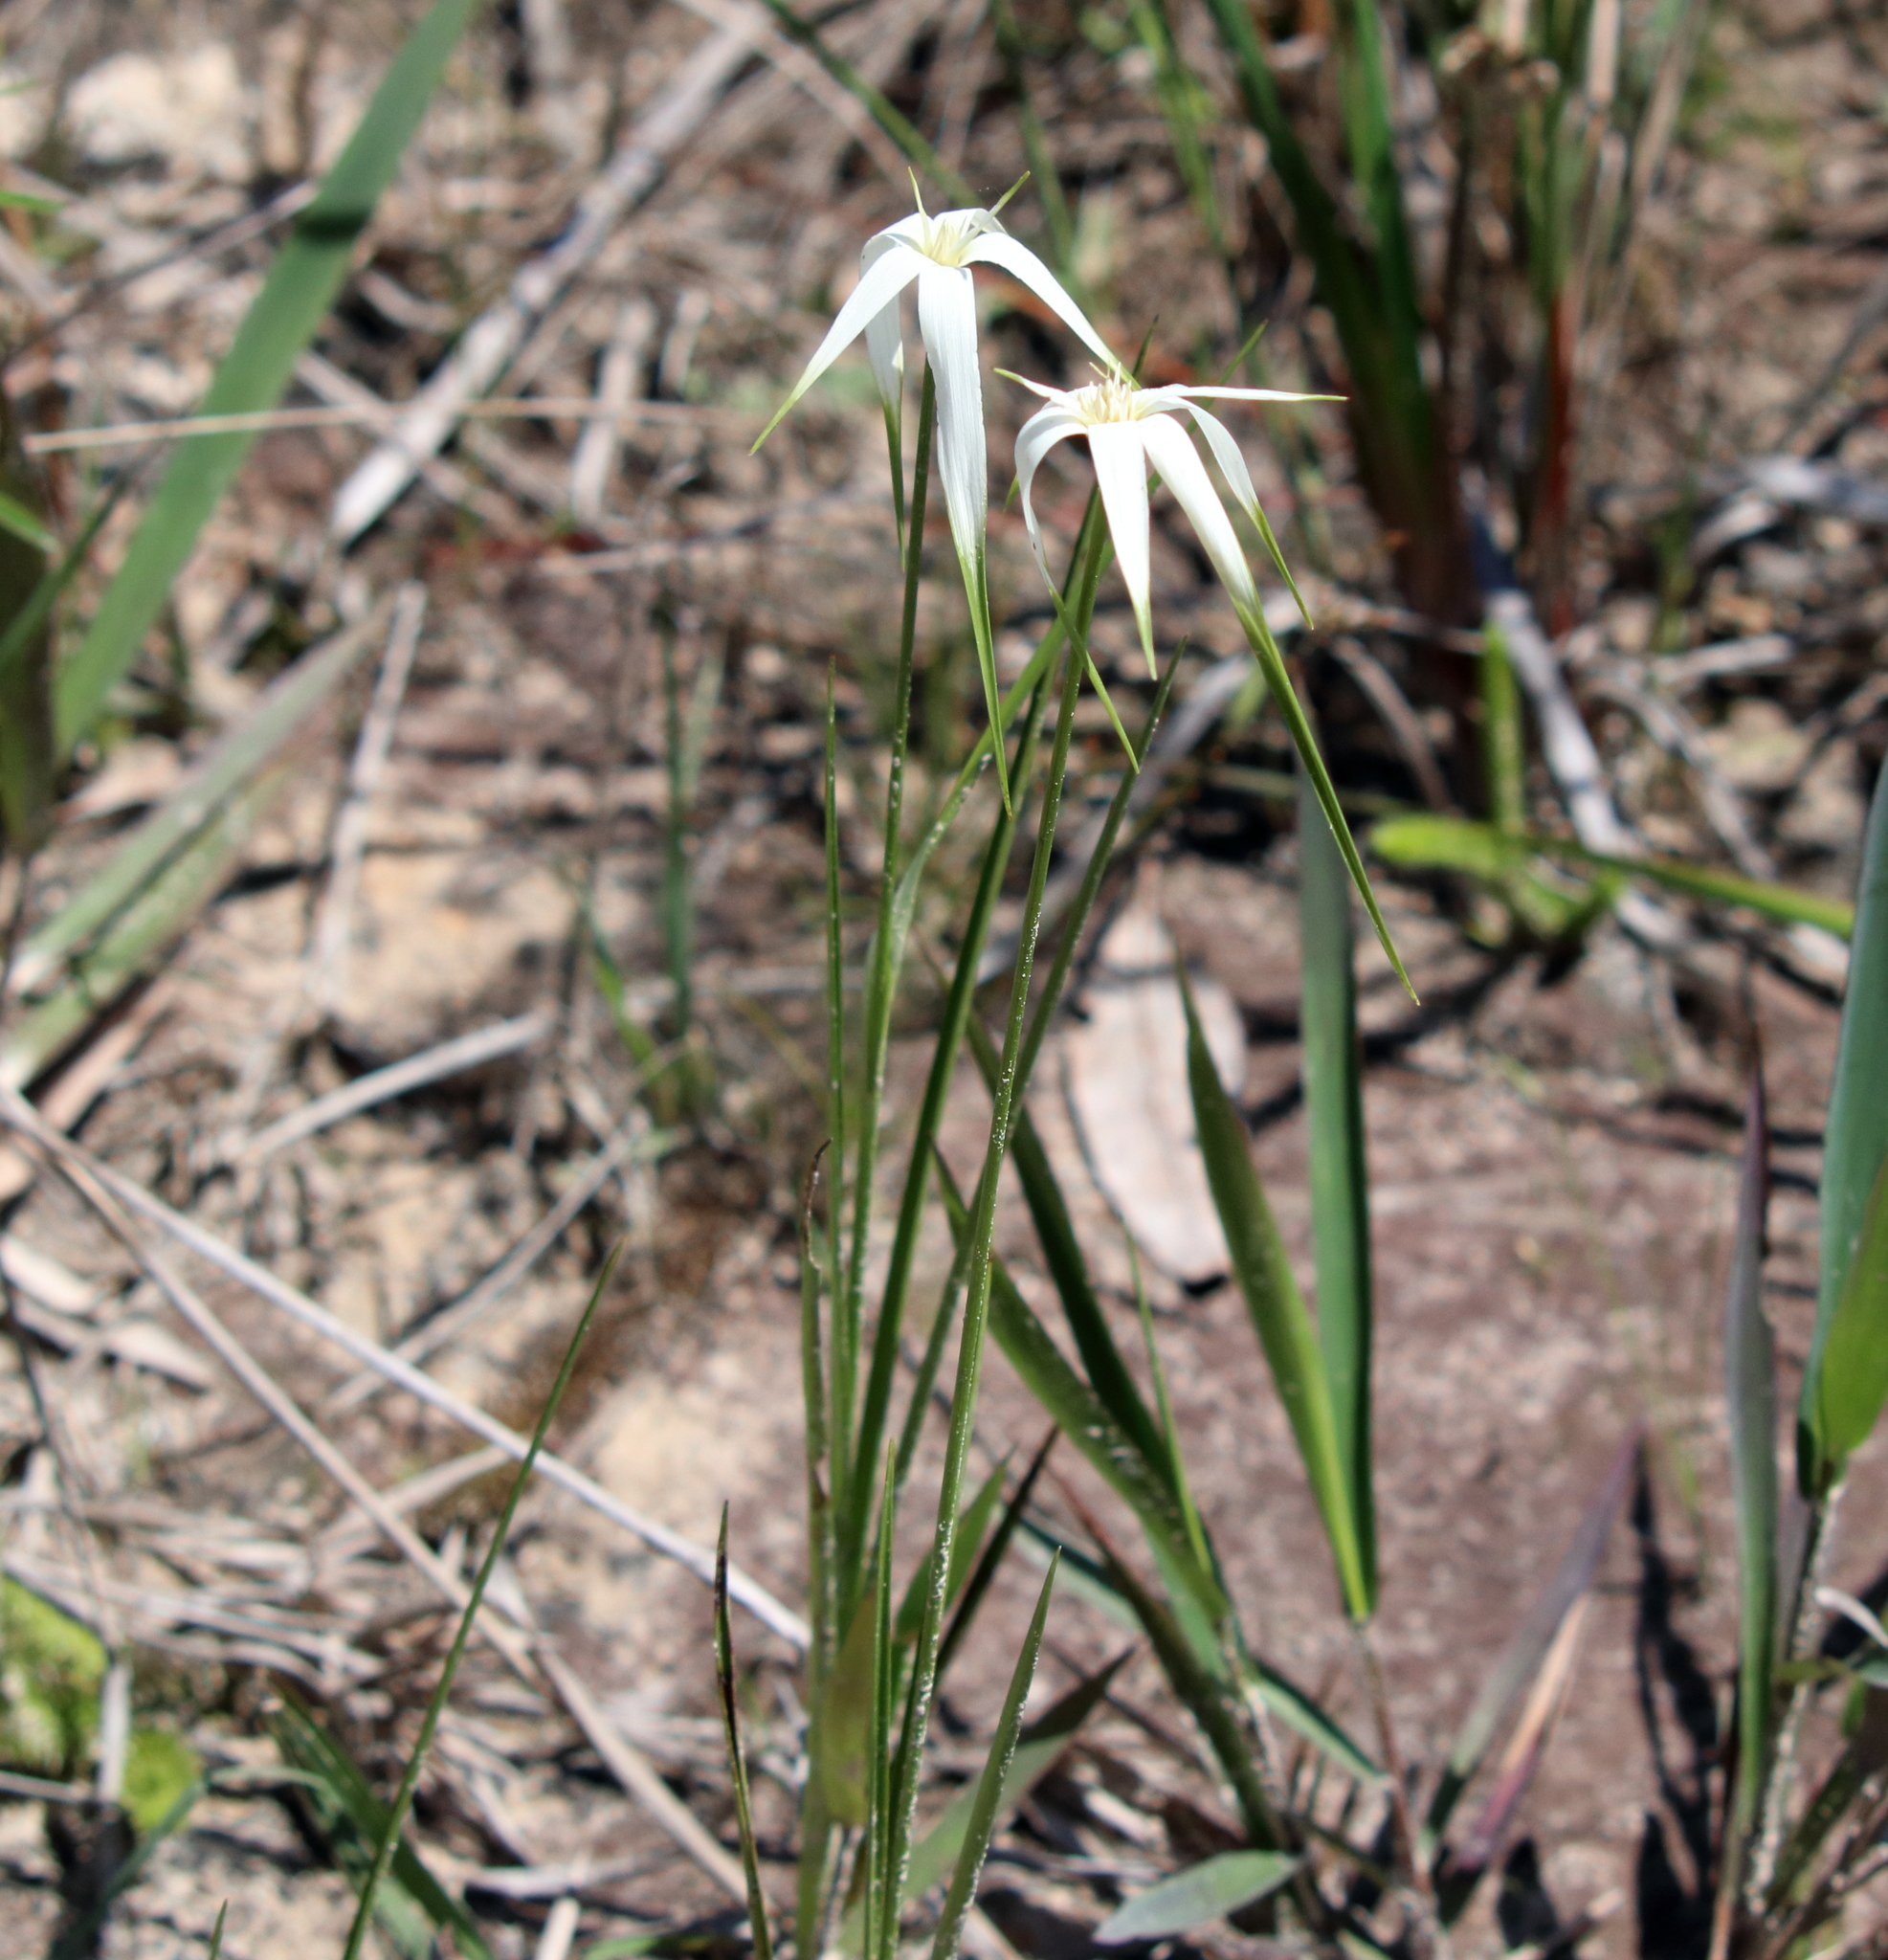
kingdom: Plantae
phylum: Tracheophyta
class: Liliopsida
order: Poales
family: Cyperaceae
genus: Rhynchospora
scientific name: Rhynchospora latifolia
